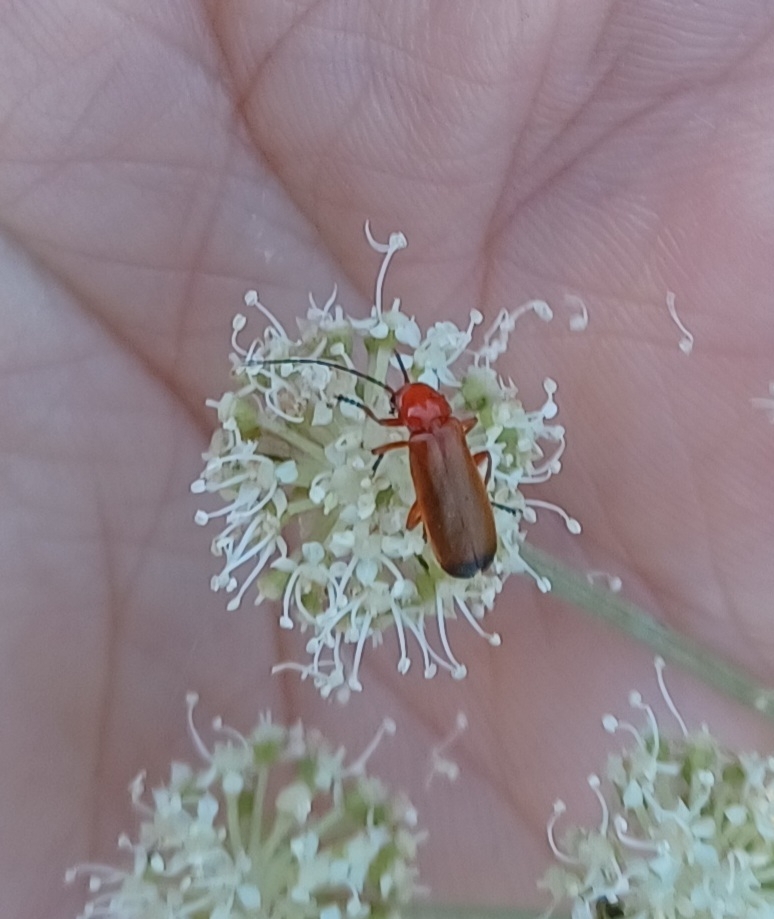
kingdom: Animalia
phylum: Arthropoda
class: Insecta
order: Coleoptera
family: Cantharidae
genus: Rhagonycha
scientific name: Rhagonycha fulva
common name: Common red soldier beetle
